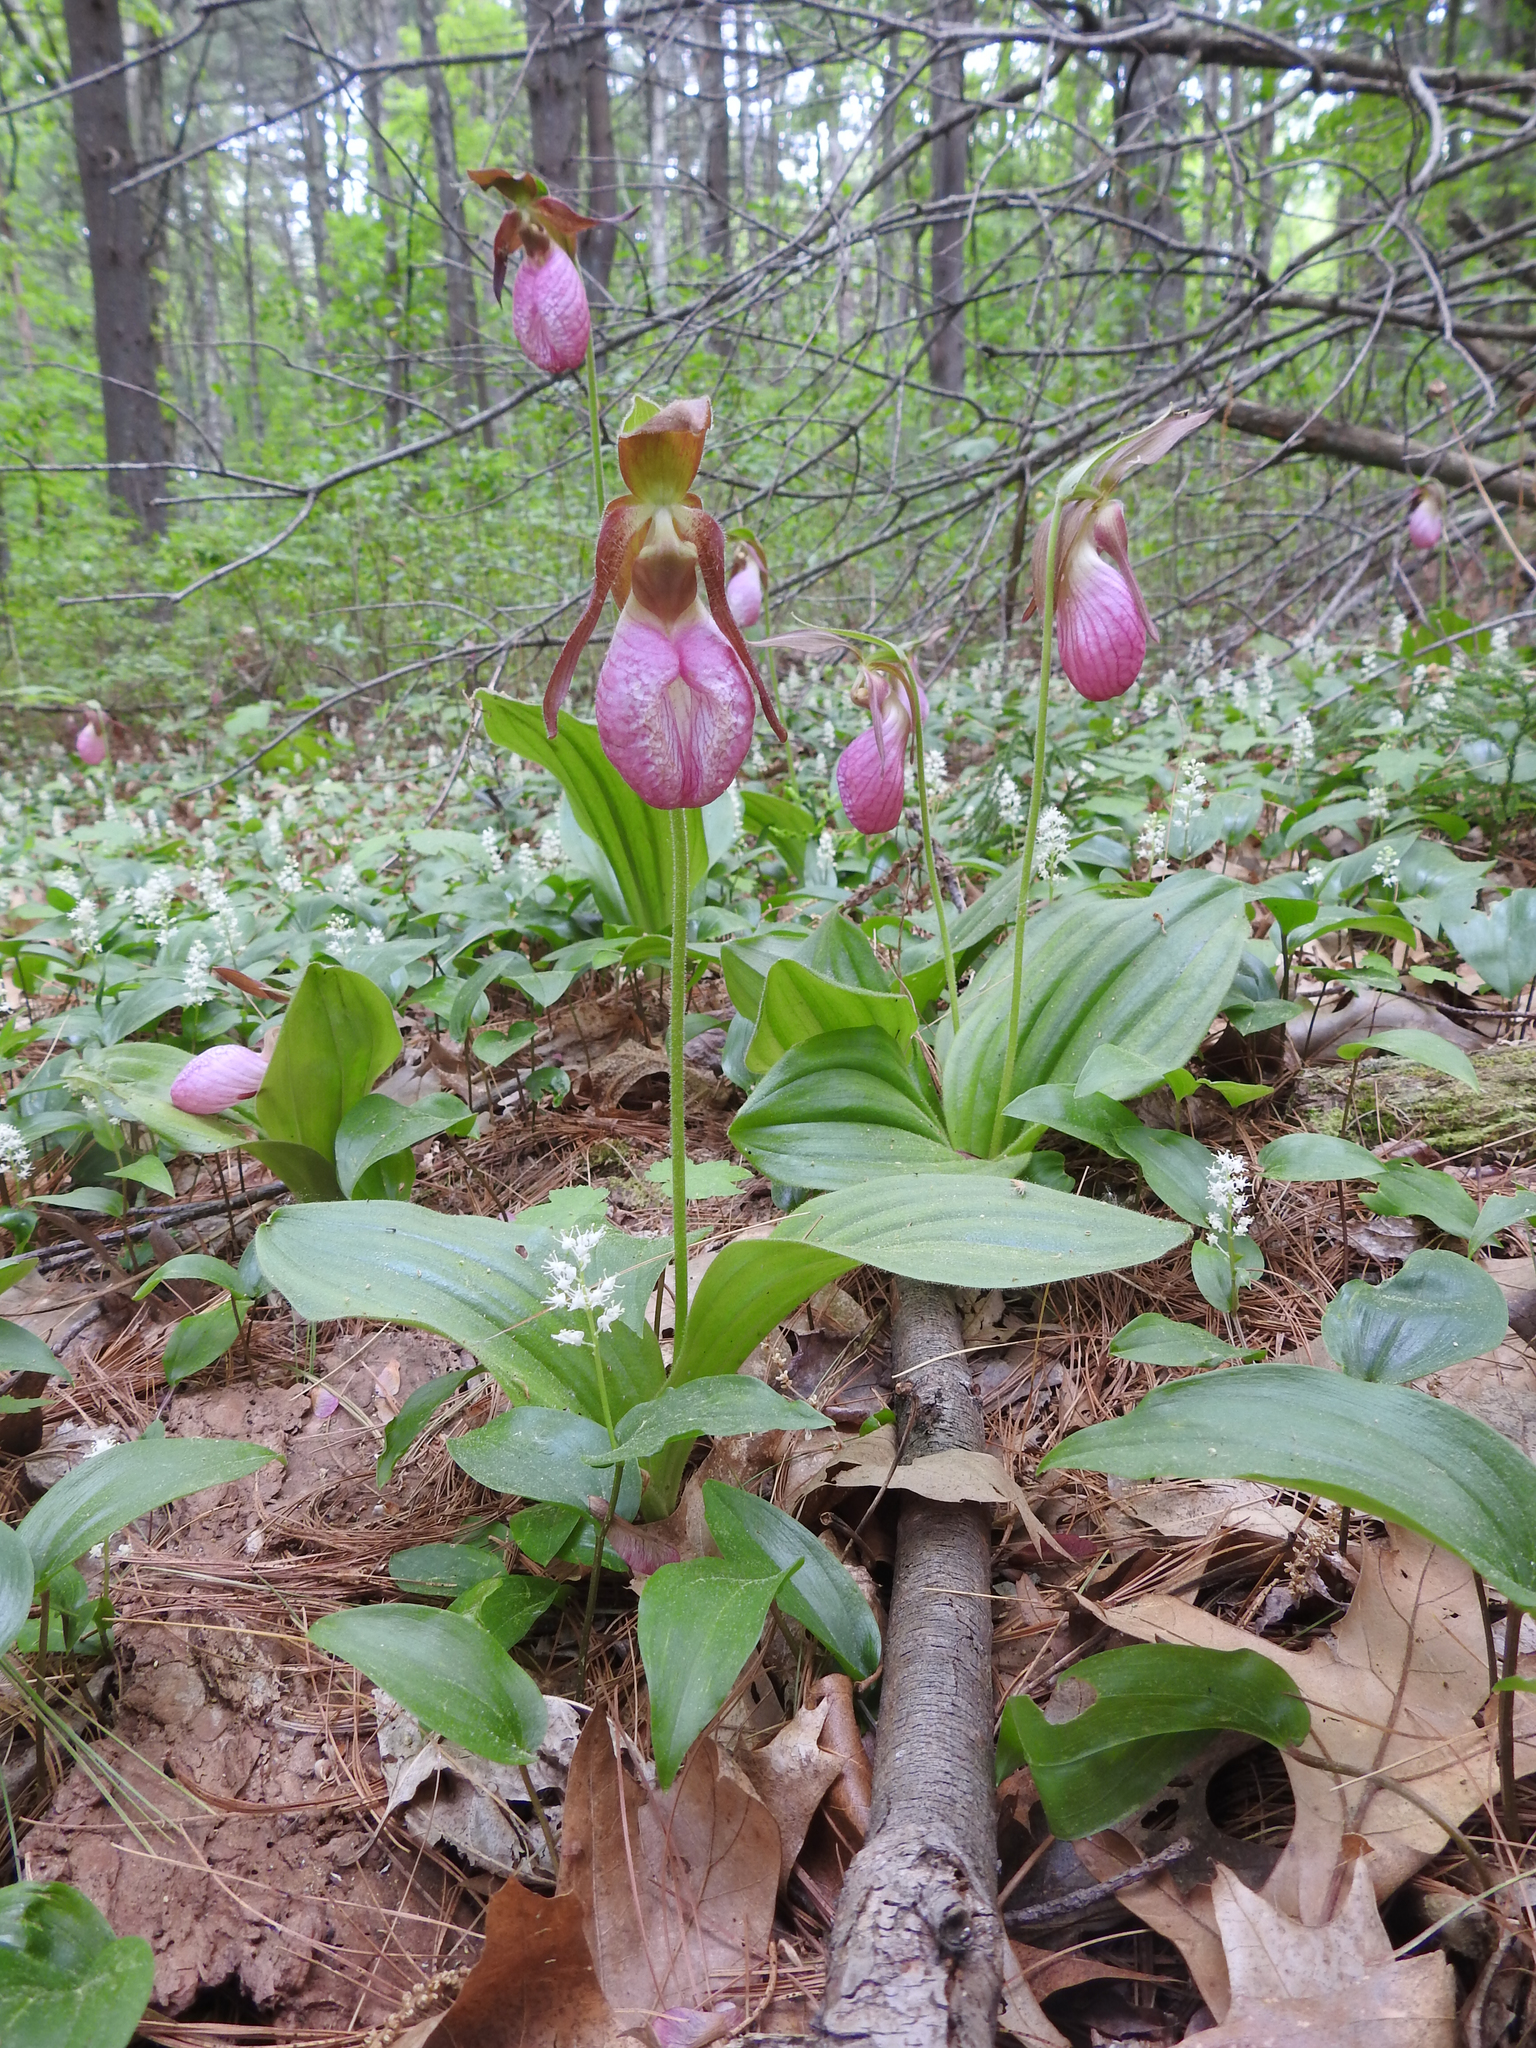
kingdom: Plantae
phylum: Tracheophyta
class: Liliopsida
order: Asparagales
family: Orchidaceae
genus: Cypripedium
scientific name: Cypripedium acaule
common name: Pink lady's-slipper
